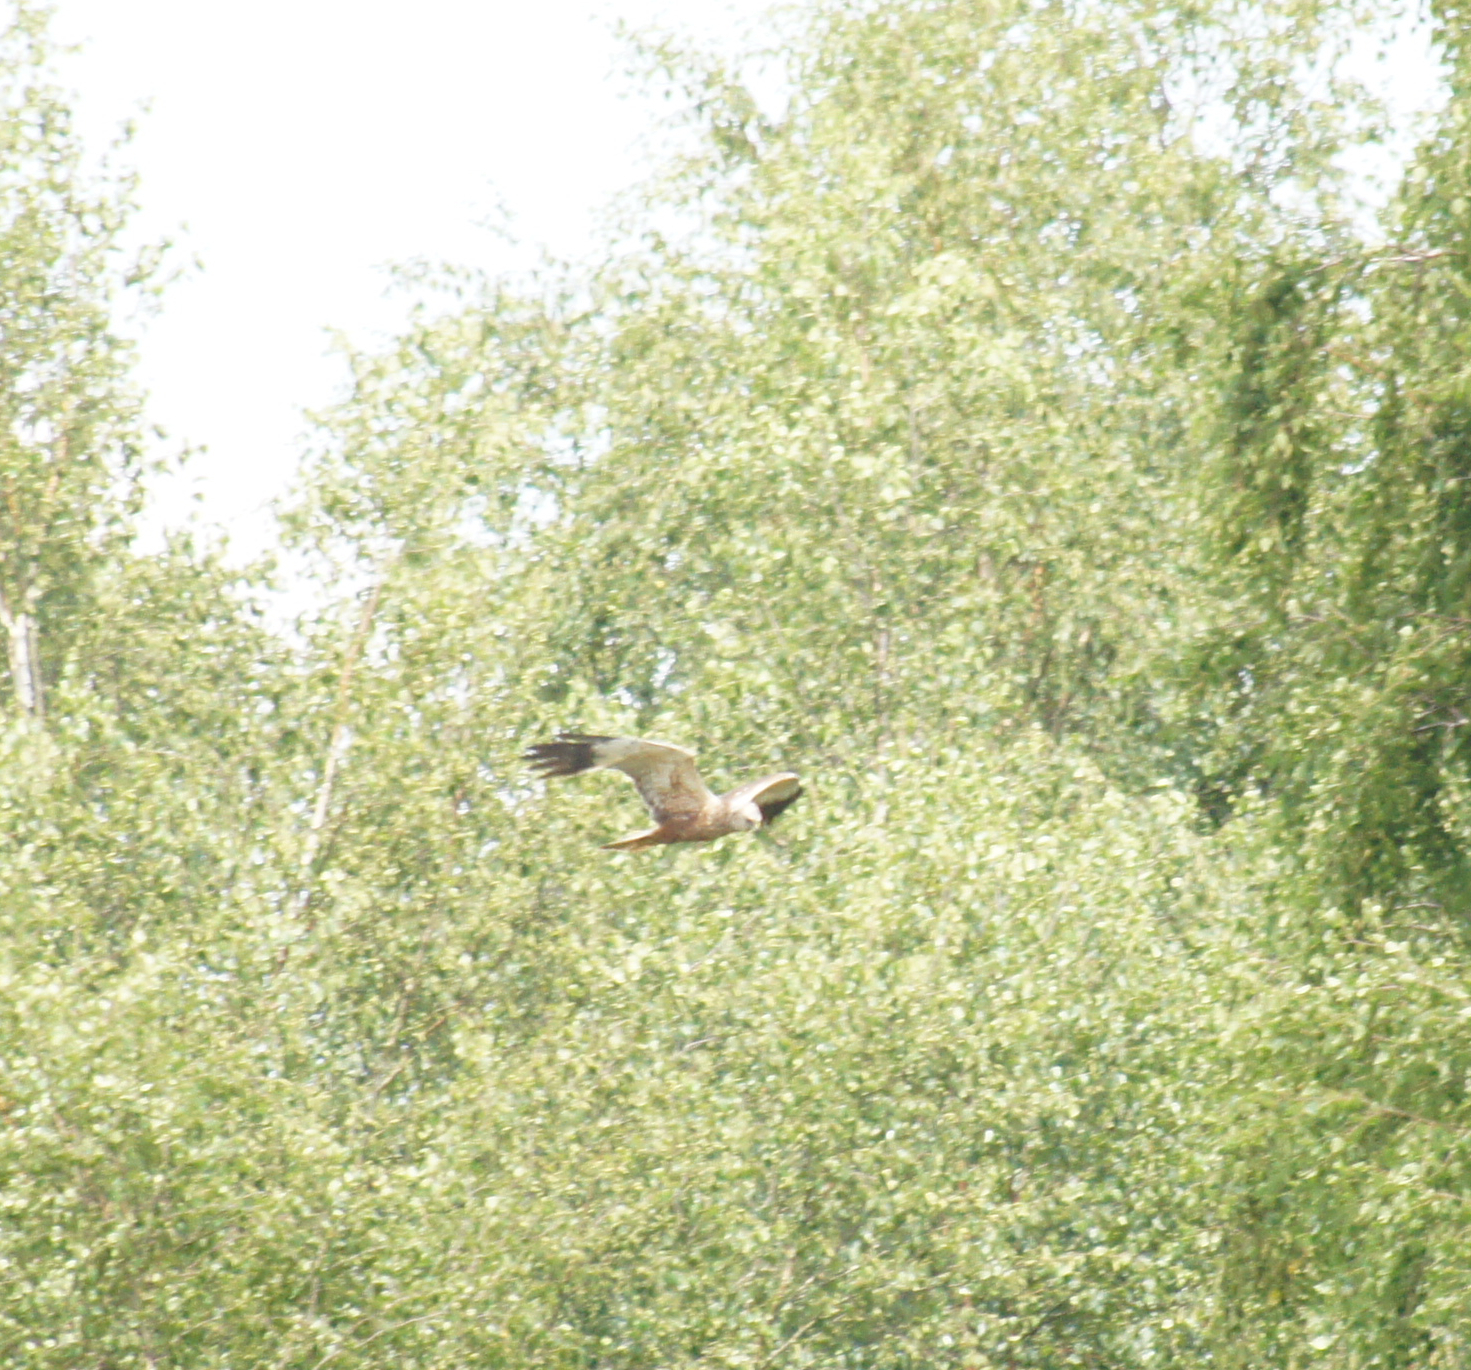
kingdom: Animalia
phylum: Chordata
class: Aves
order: Accipitriformes
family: Accipitridae
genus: Circus
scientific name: Circus aeruginosus
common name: Western marsh harrier
